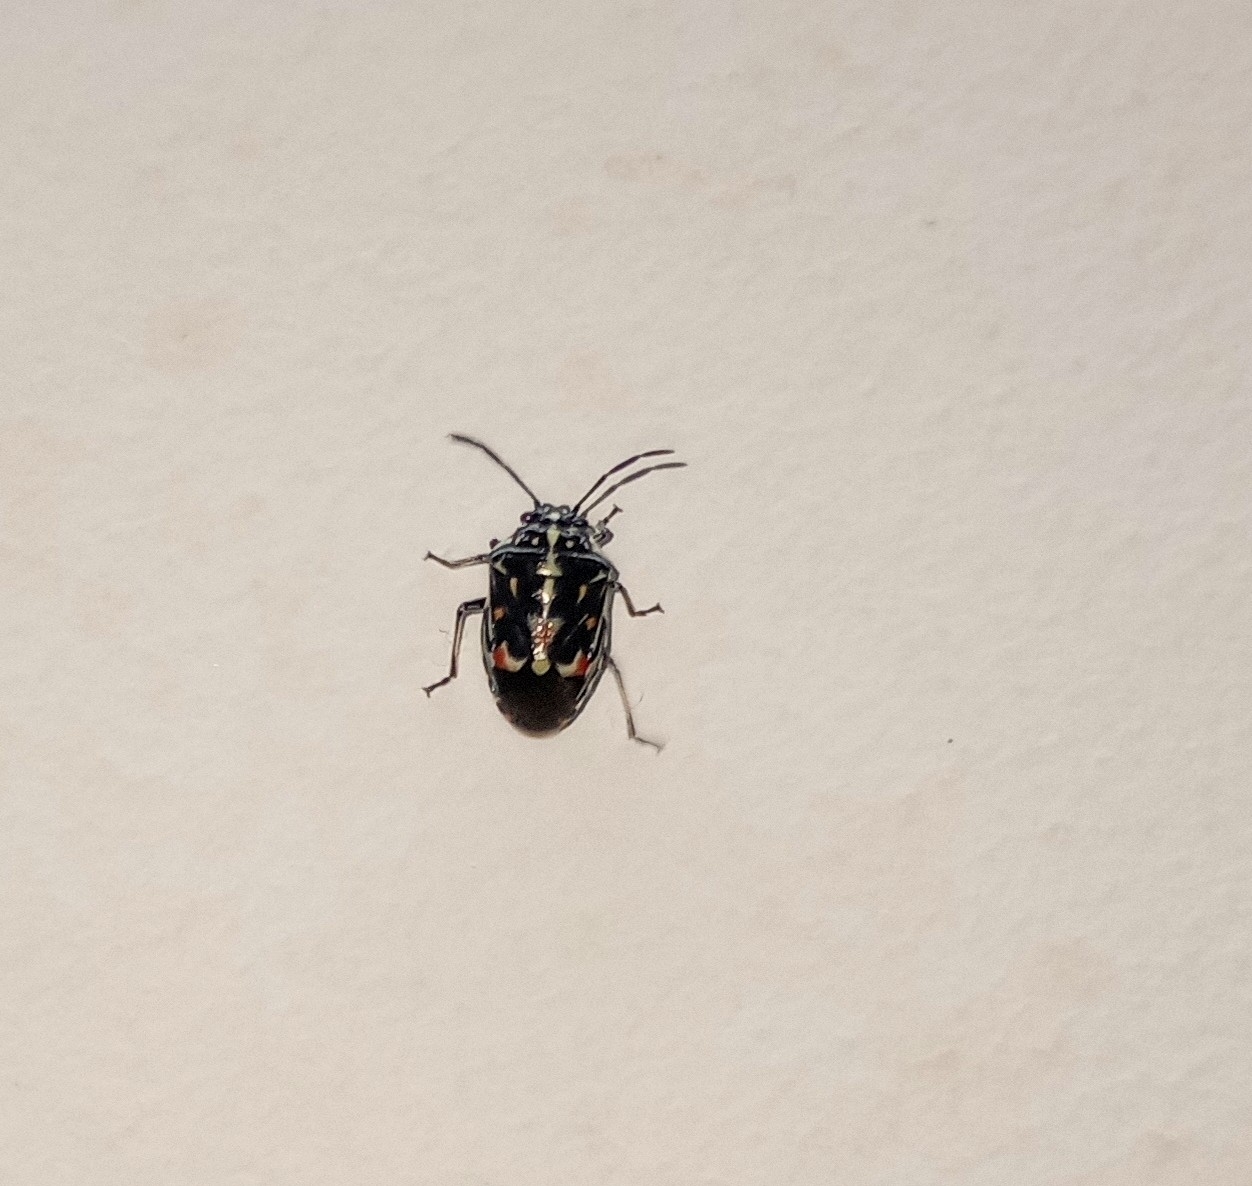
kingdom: Animalia
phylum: Arthropoda
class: Insecta
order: Hemiptera
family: Pentatomidae
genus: Stenozygum
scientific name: Stenozygum speciosum
